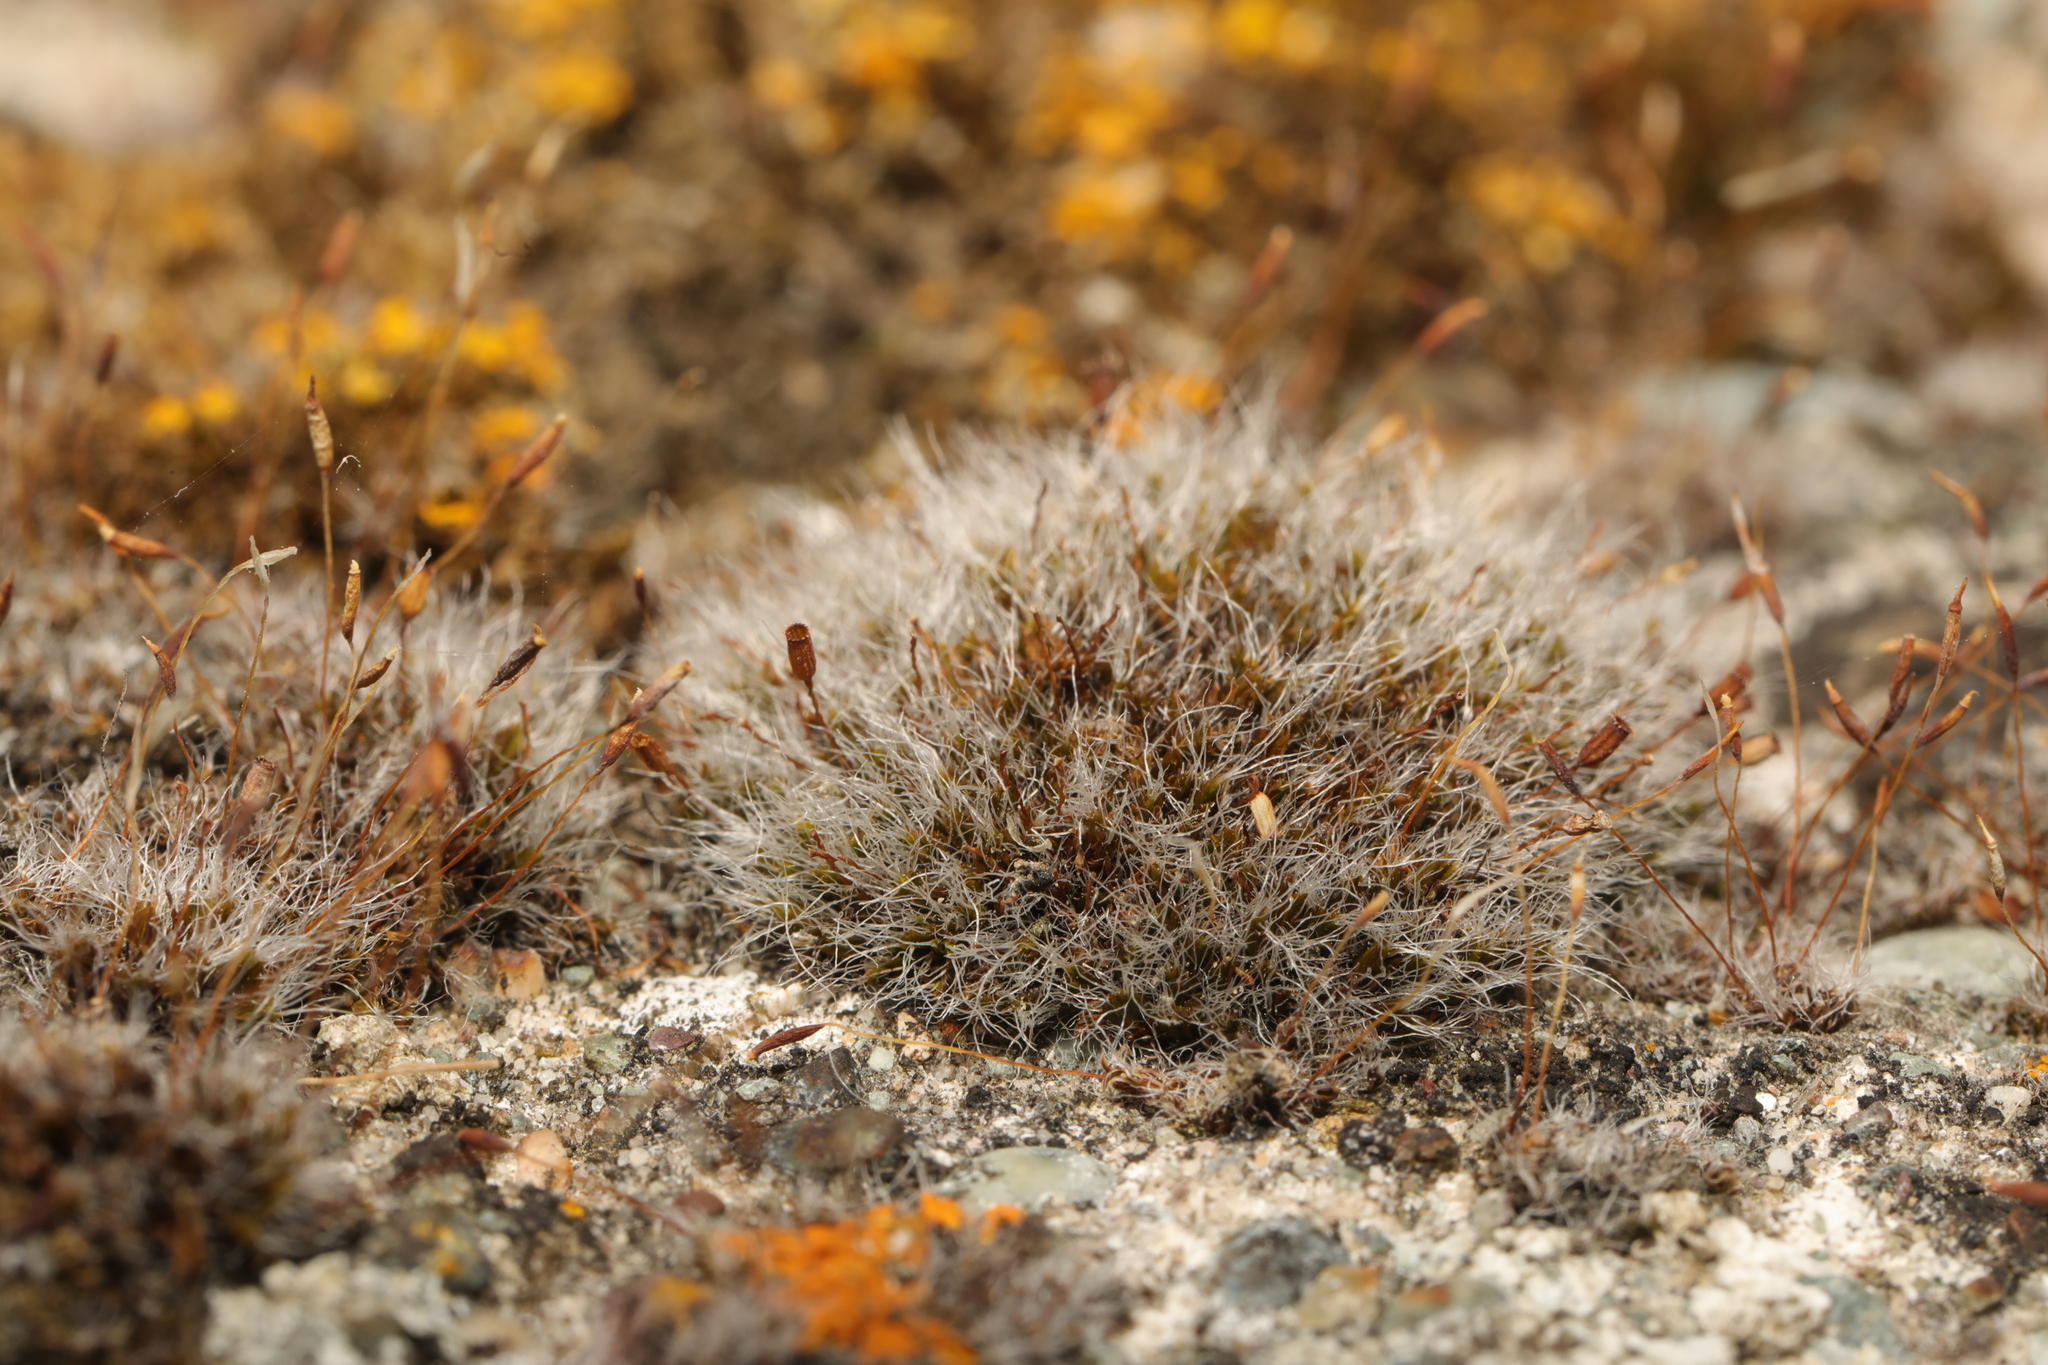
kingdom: Plantae
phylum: Bryophyta
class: Bryopsida
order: Grimmiales
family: Grimmiaceae
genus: Grimmia
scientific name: Grimmia pulvinata
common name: Grey-cushioned grimmia
